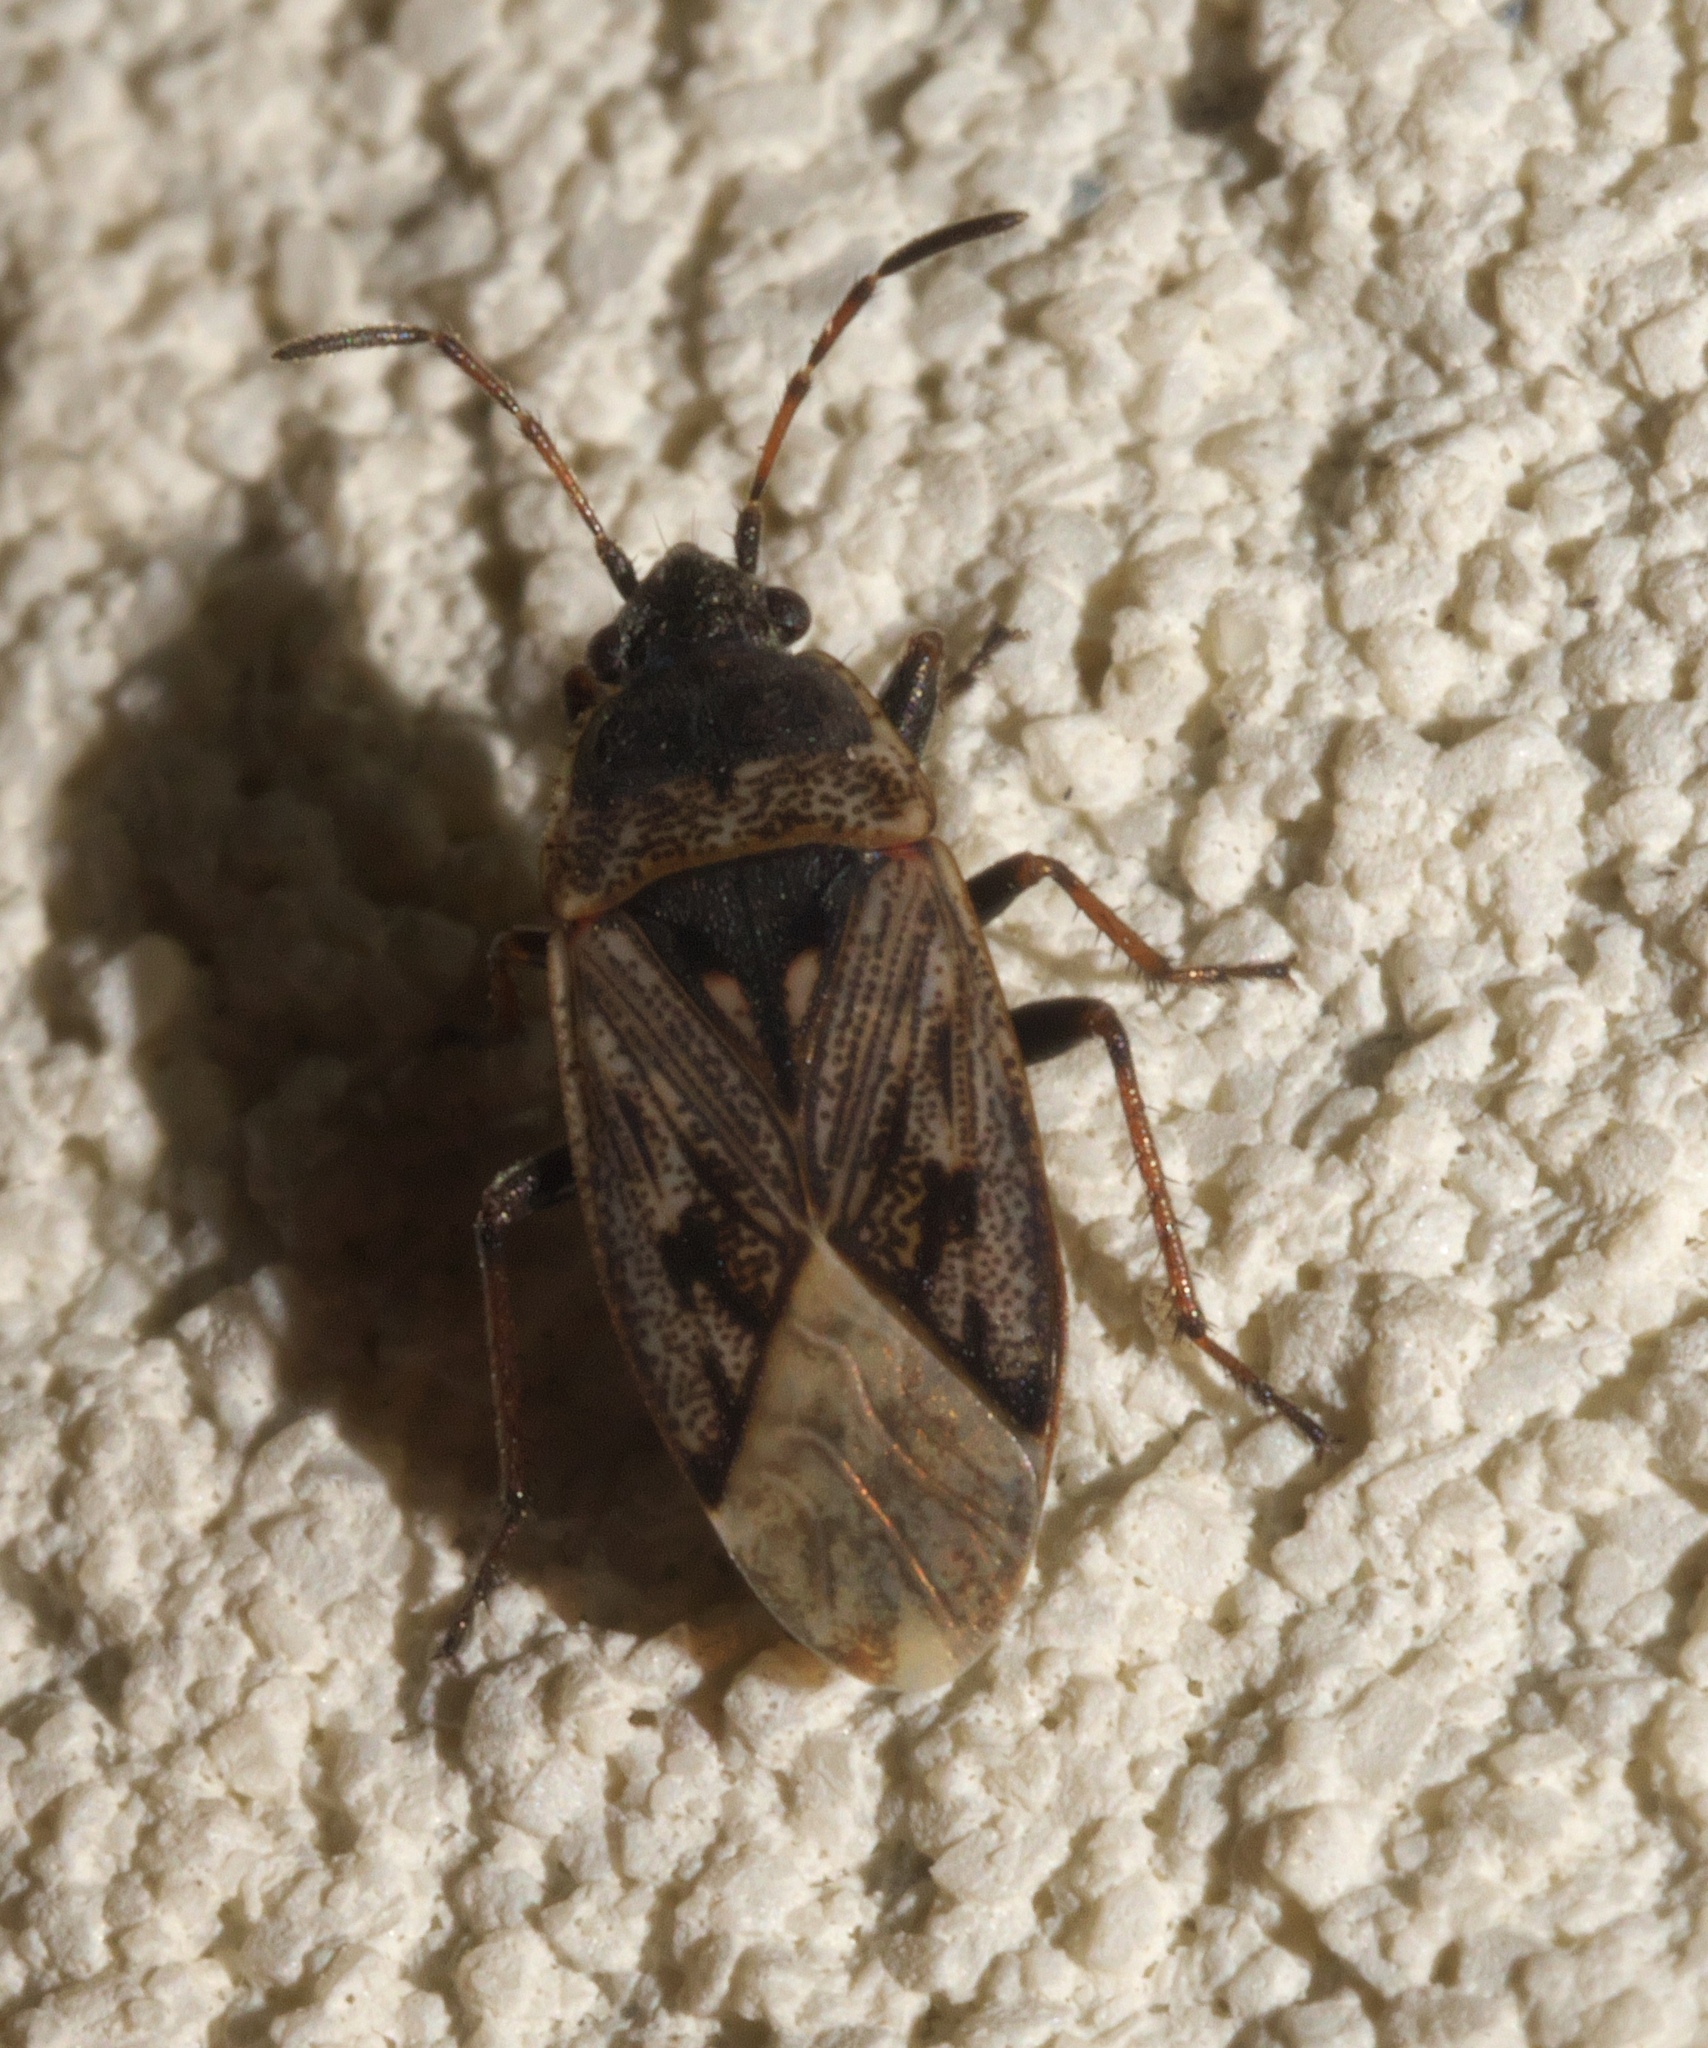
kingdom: Animalia
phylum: Arthropoda
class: Insecta
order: Hemiptera
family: Rhyparochromidae
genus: Sphragisticus
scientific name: Sphragisticus nebulosus
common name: Dirt-colored seed bug
